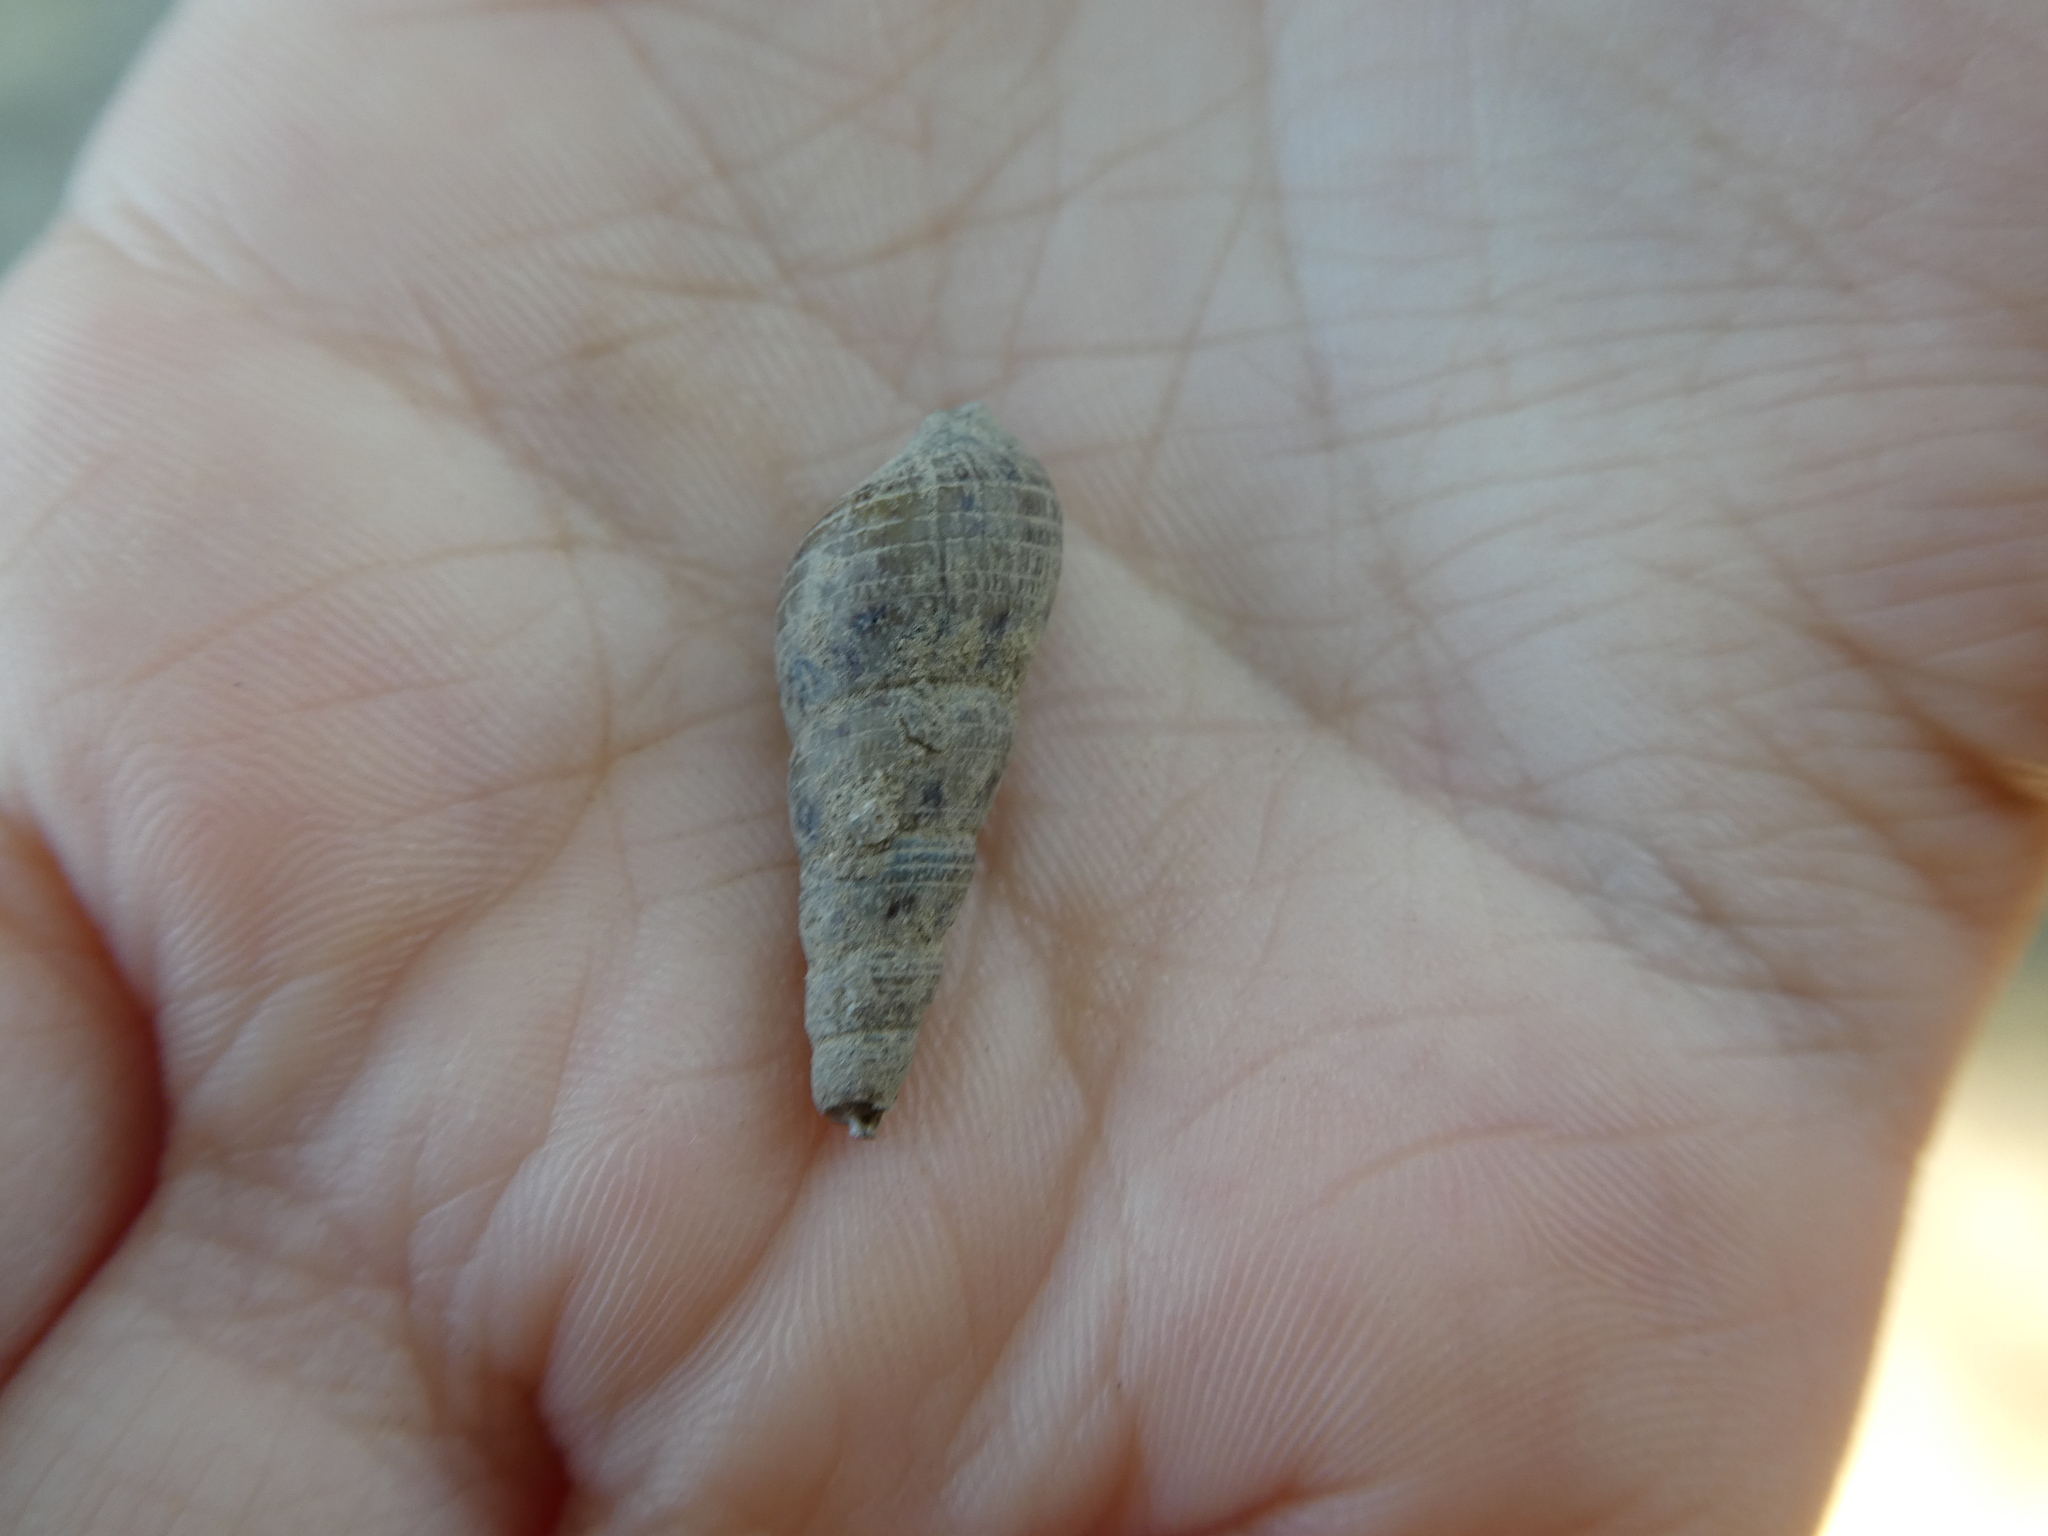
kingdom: Animalia
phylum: Mollusca
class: Gastropoda
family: Thiaridae
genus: Melanoides
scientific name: Melanoides tuberculata
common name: Red-rim melania
